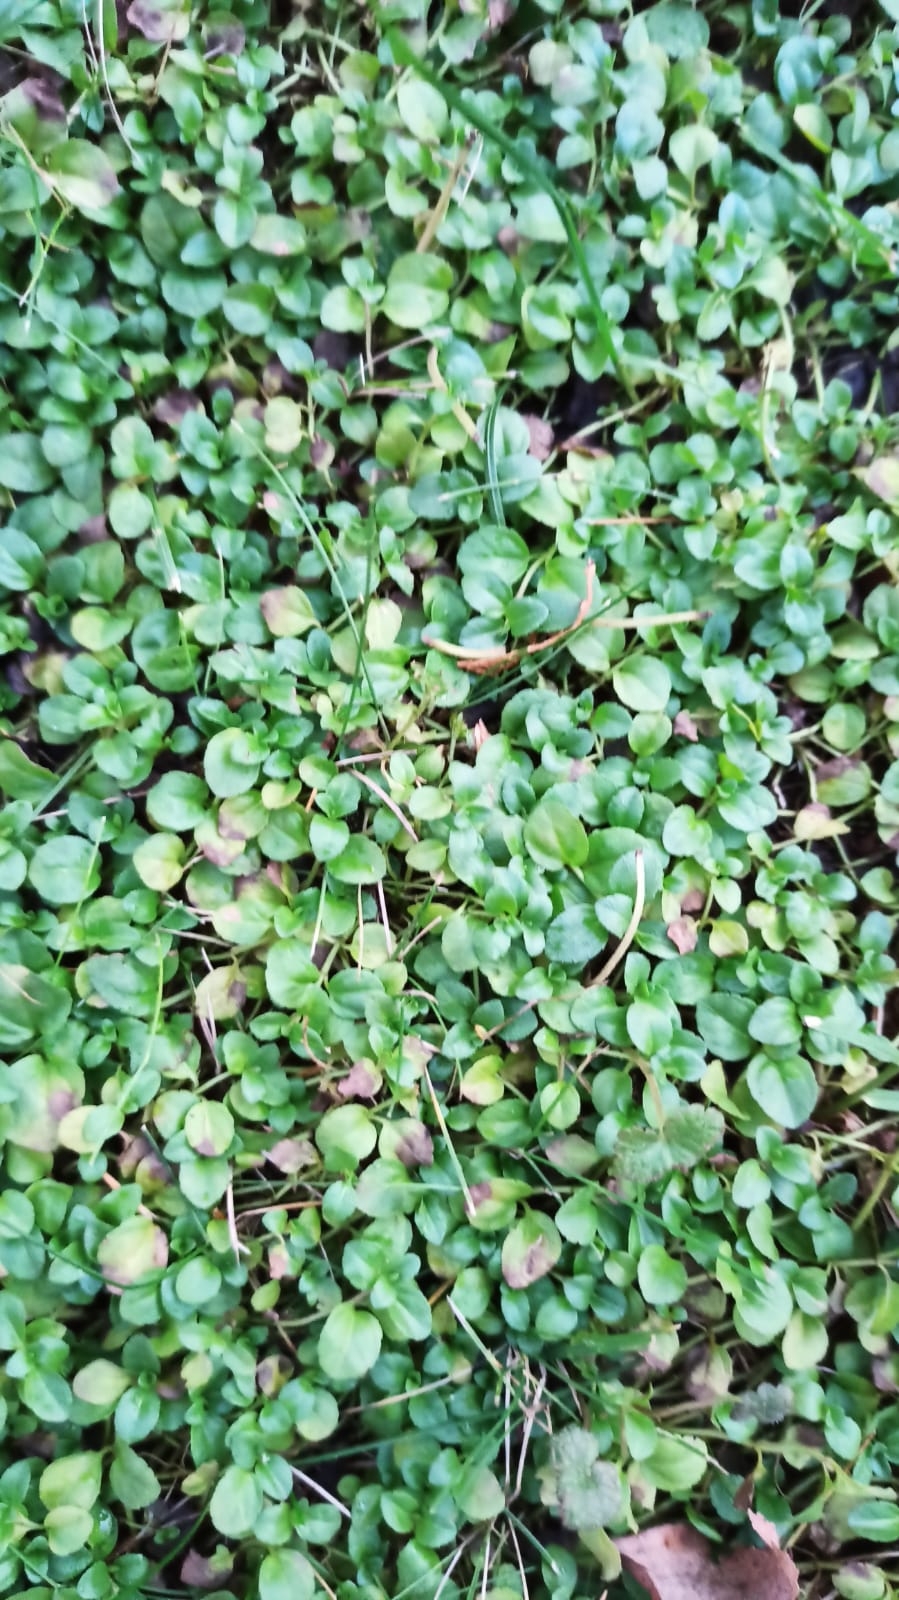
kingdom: Plantae
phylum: Tracheophyta
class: Magnoliopsida
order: Lamiales
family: Plantaginaceae
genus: Veronica
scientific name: Veronica serpyllifolia
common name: Thyme-leaved speedwell
